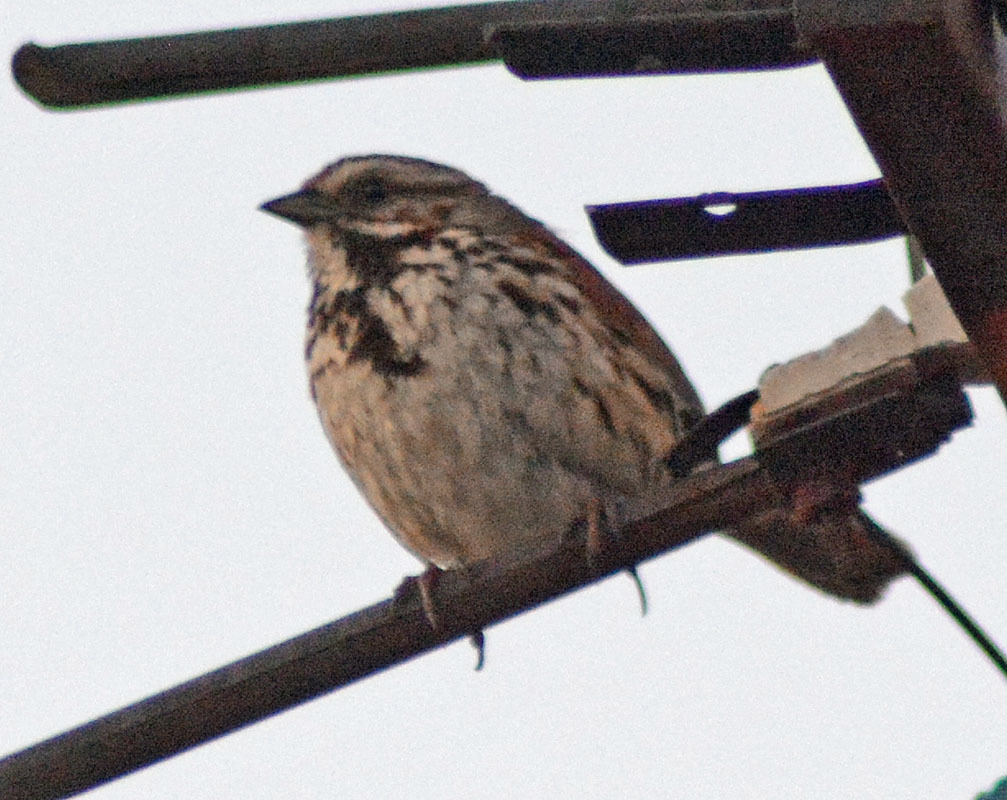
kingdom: Animalia
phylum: Chordata
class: Aves
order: Passeriformes
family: Passerellidae
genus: Melospiza
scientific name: Melospiza melodia
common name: Song sparrow
